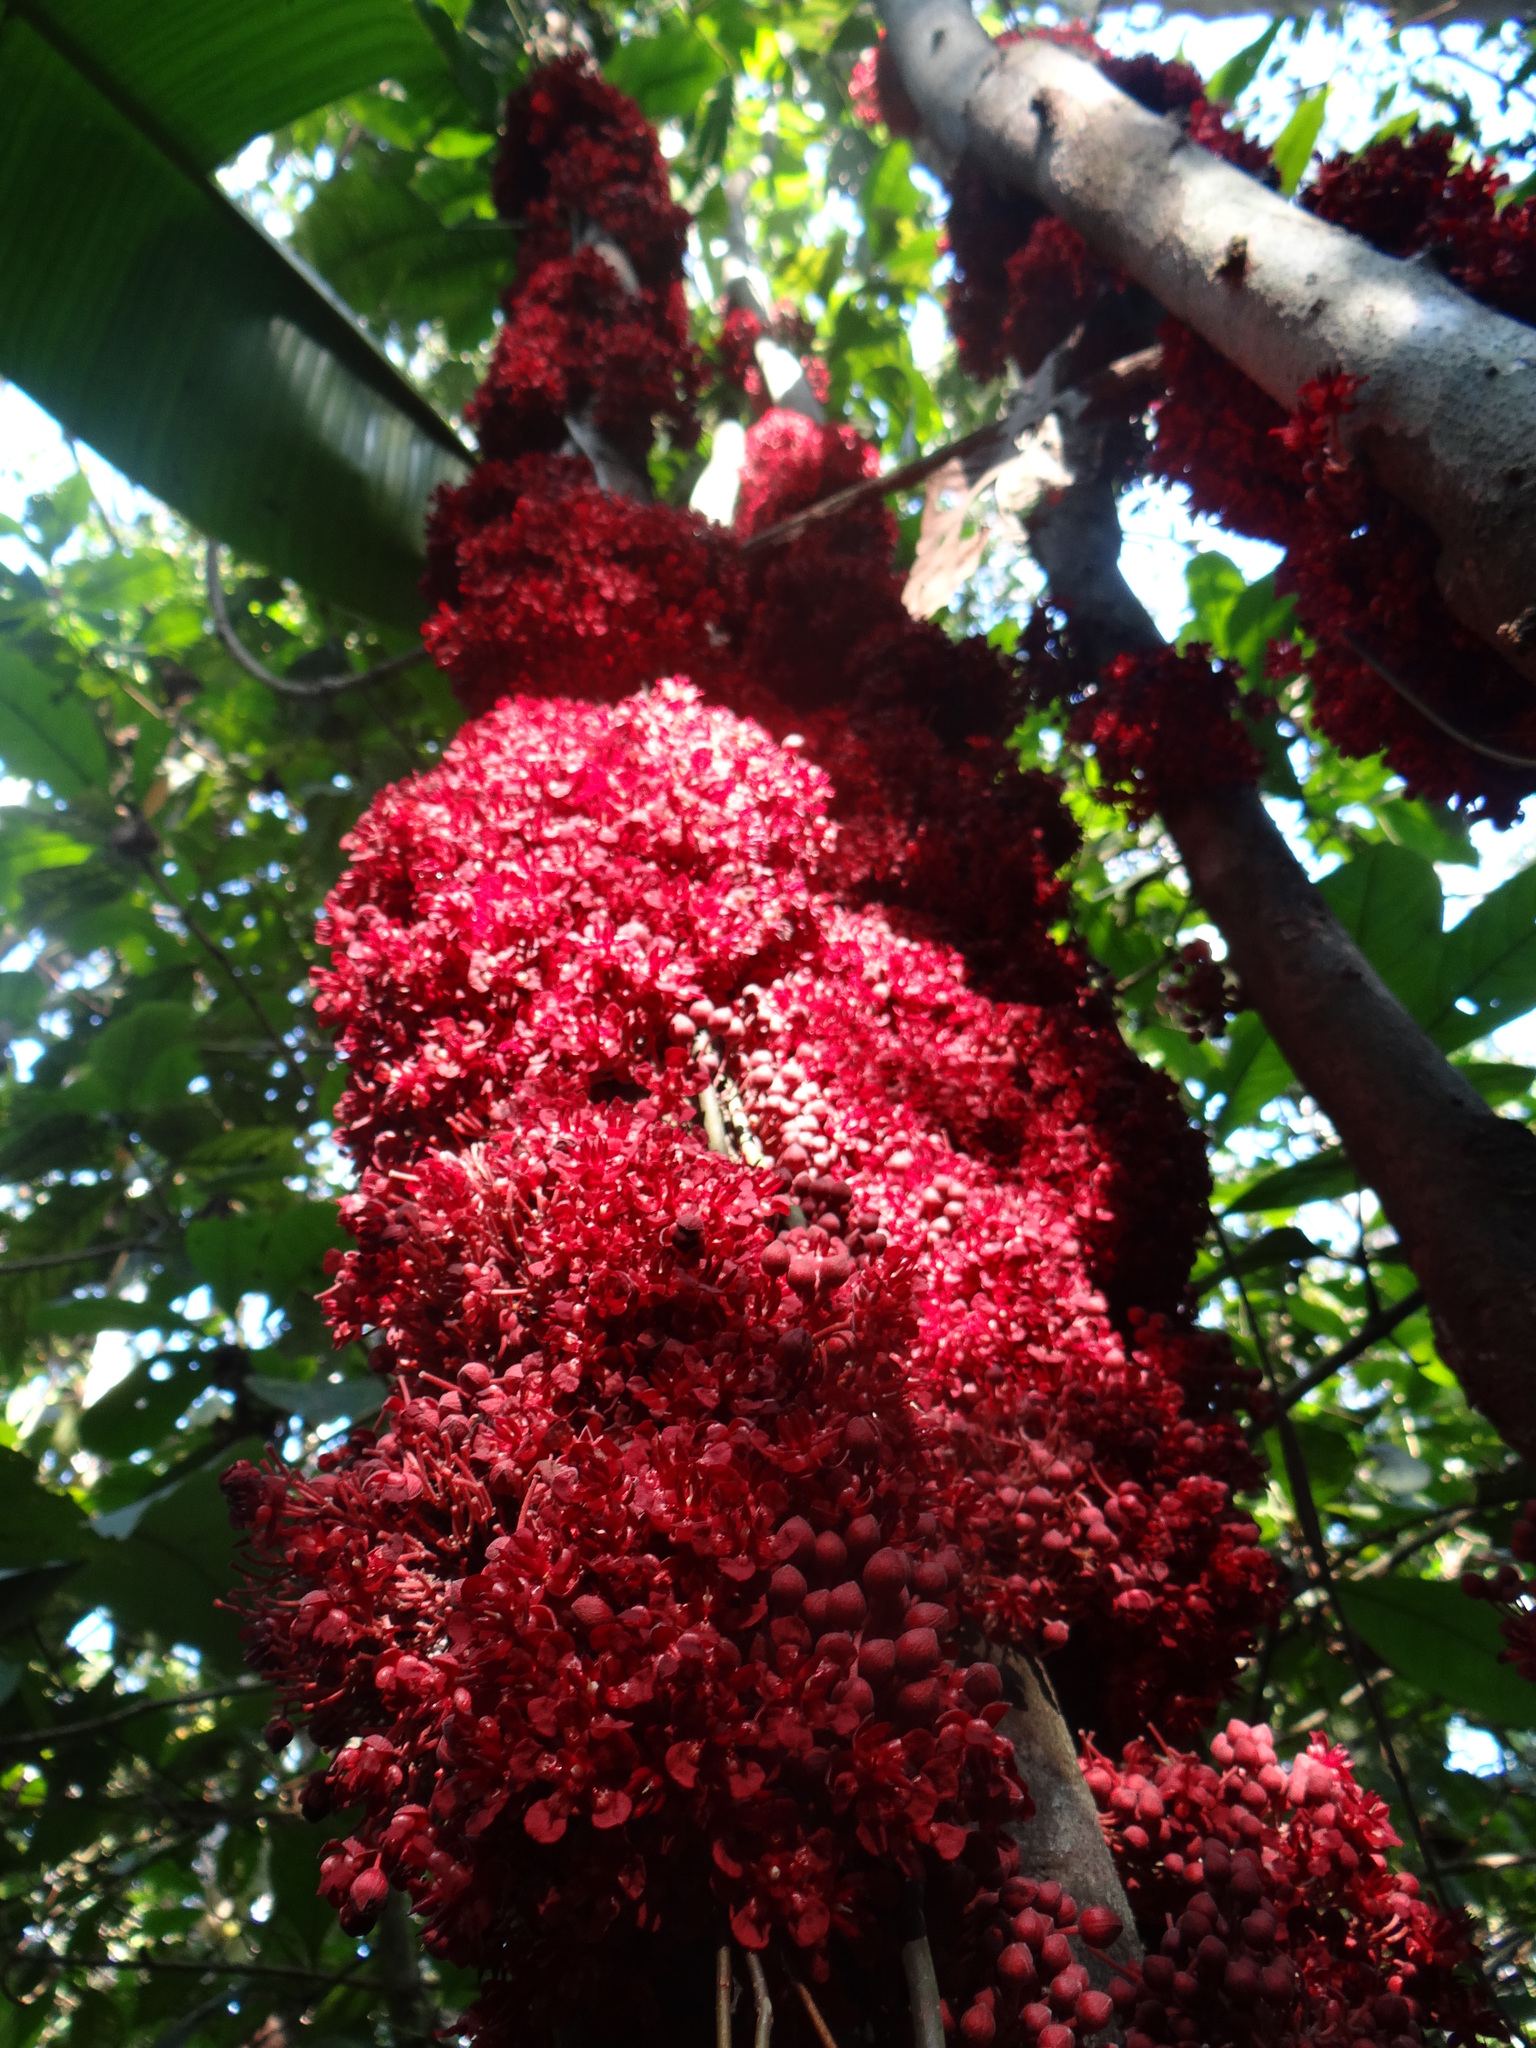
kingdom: Plantae
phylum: Tracheophyta
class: Magnoliopsida
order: Malvales
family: Malvaceae
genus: Theobroma
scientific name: Theobroma speciosum
